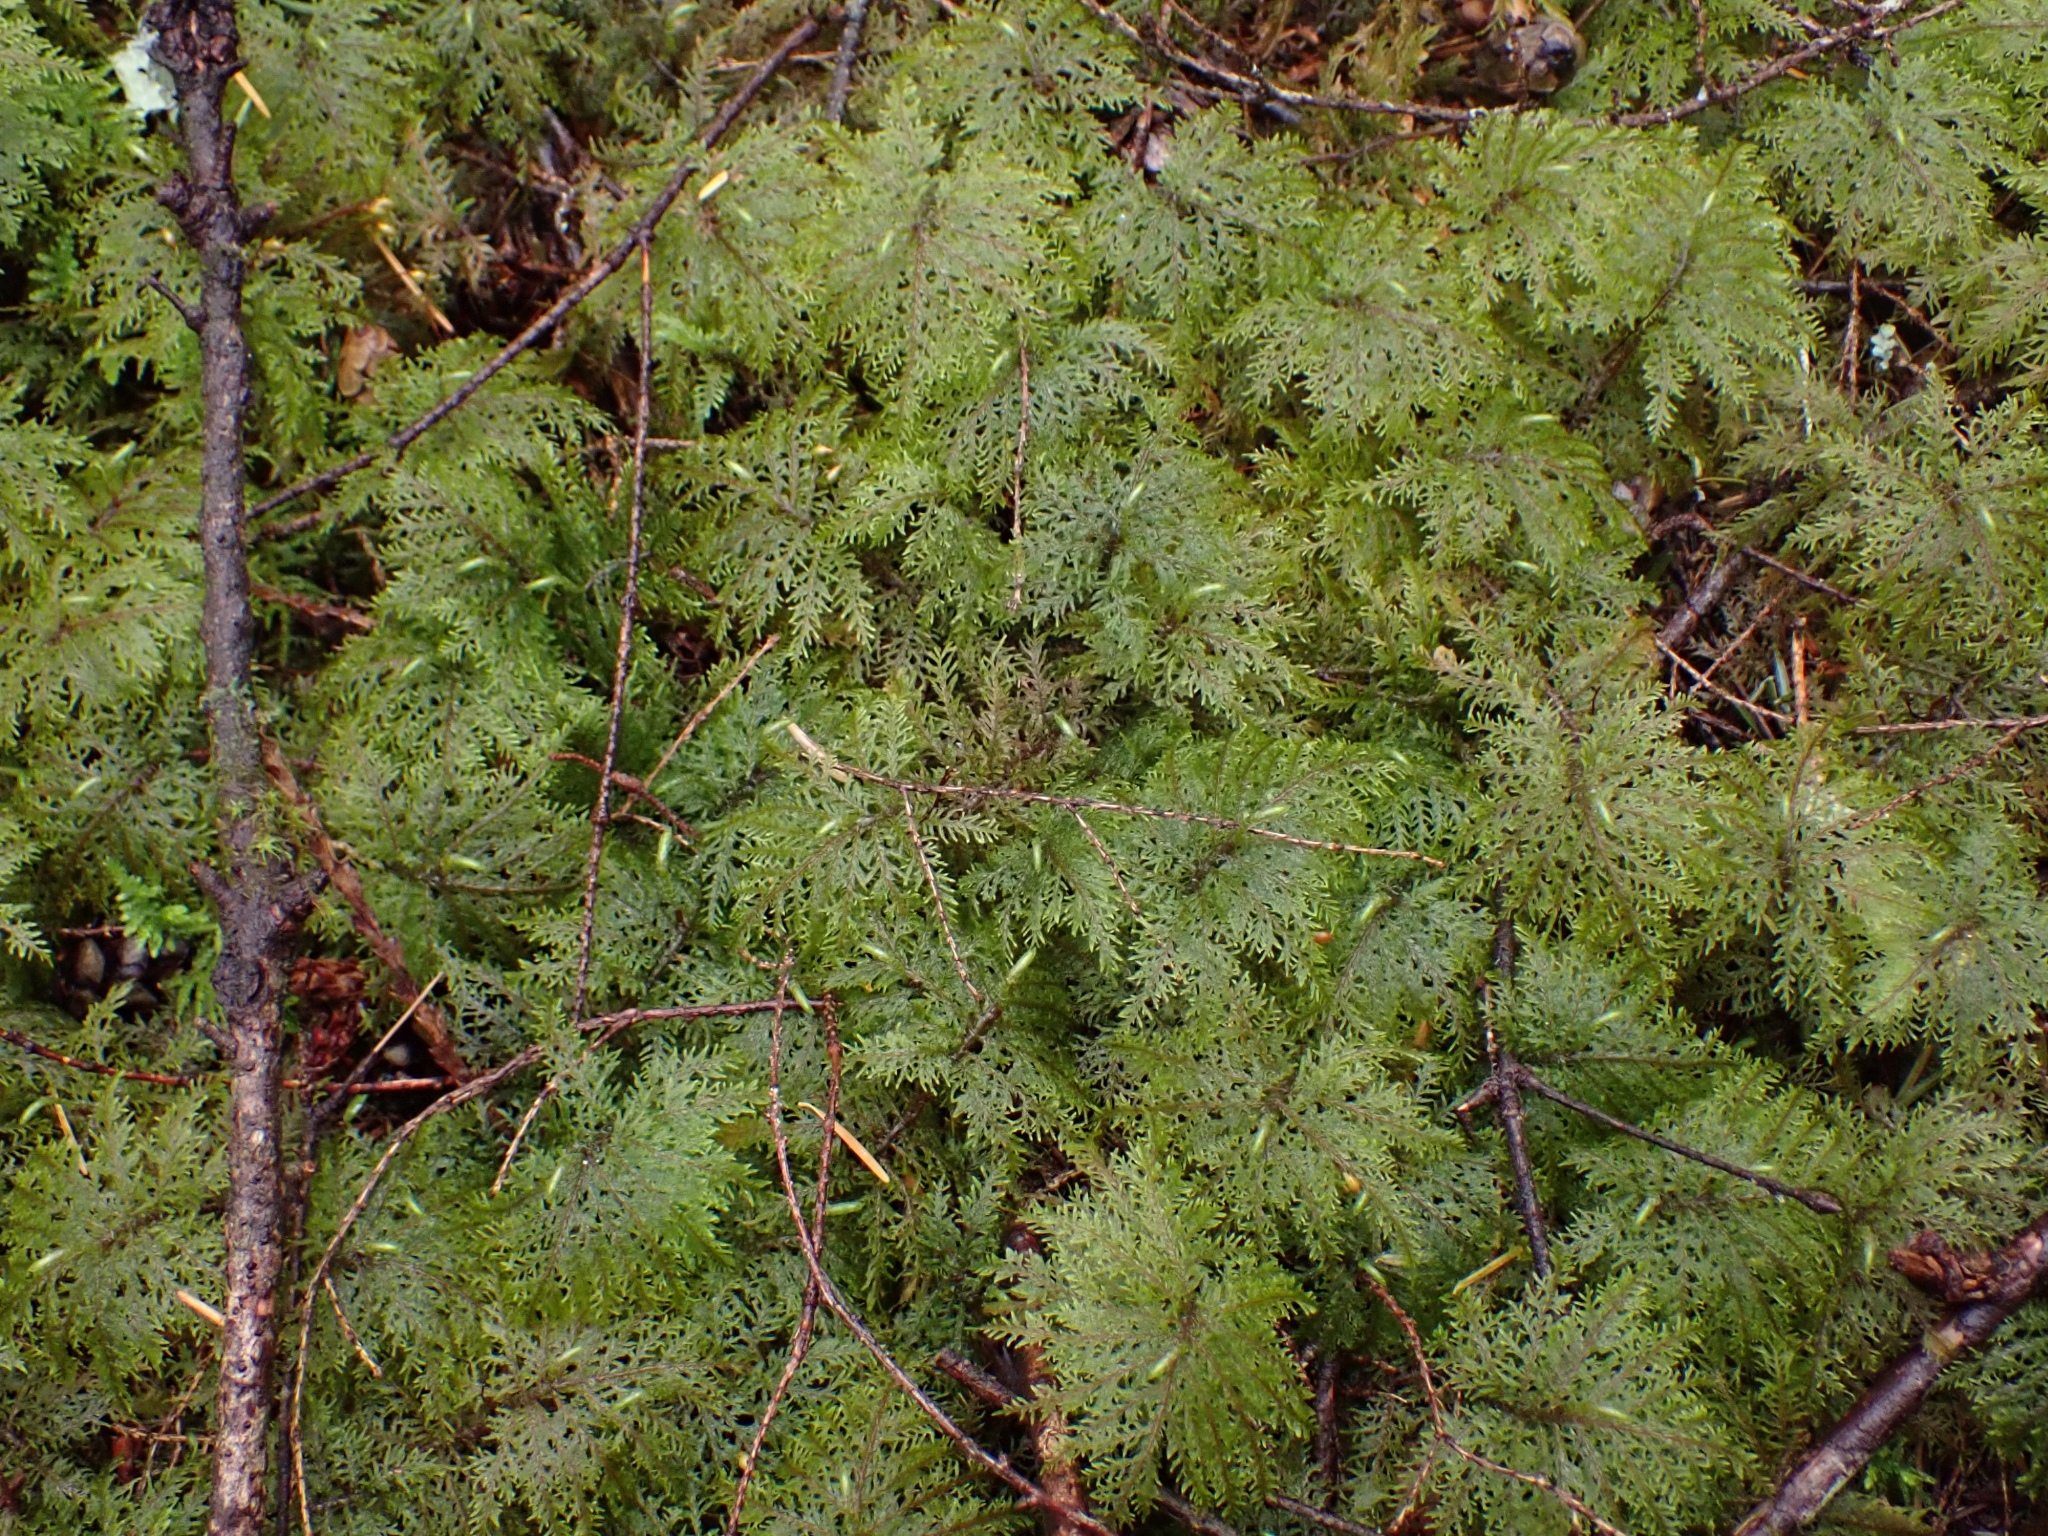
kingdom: Plantae
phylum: Bryophyta
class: Bryopsida
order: Hypnales
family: Hylocomiaceae
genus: Hylocomium
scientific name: Hylocomium splendens
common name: Stairstep moss
